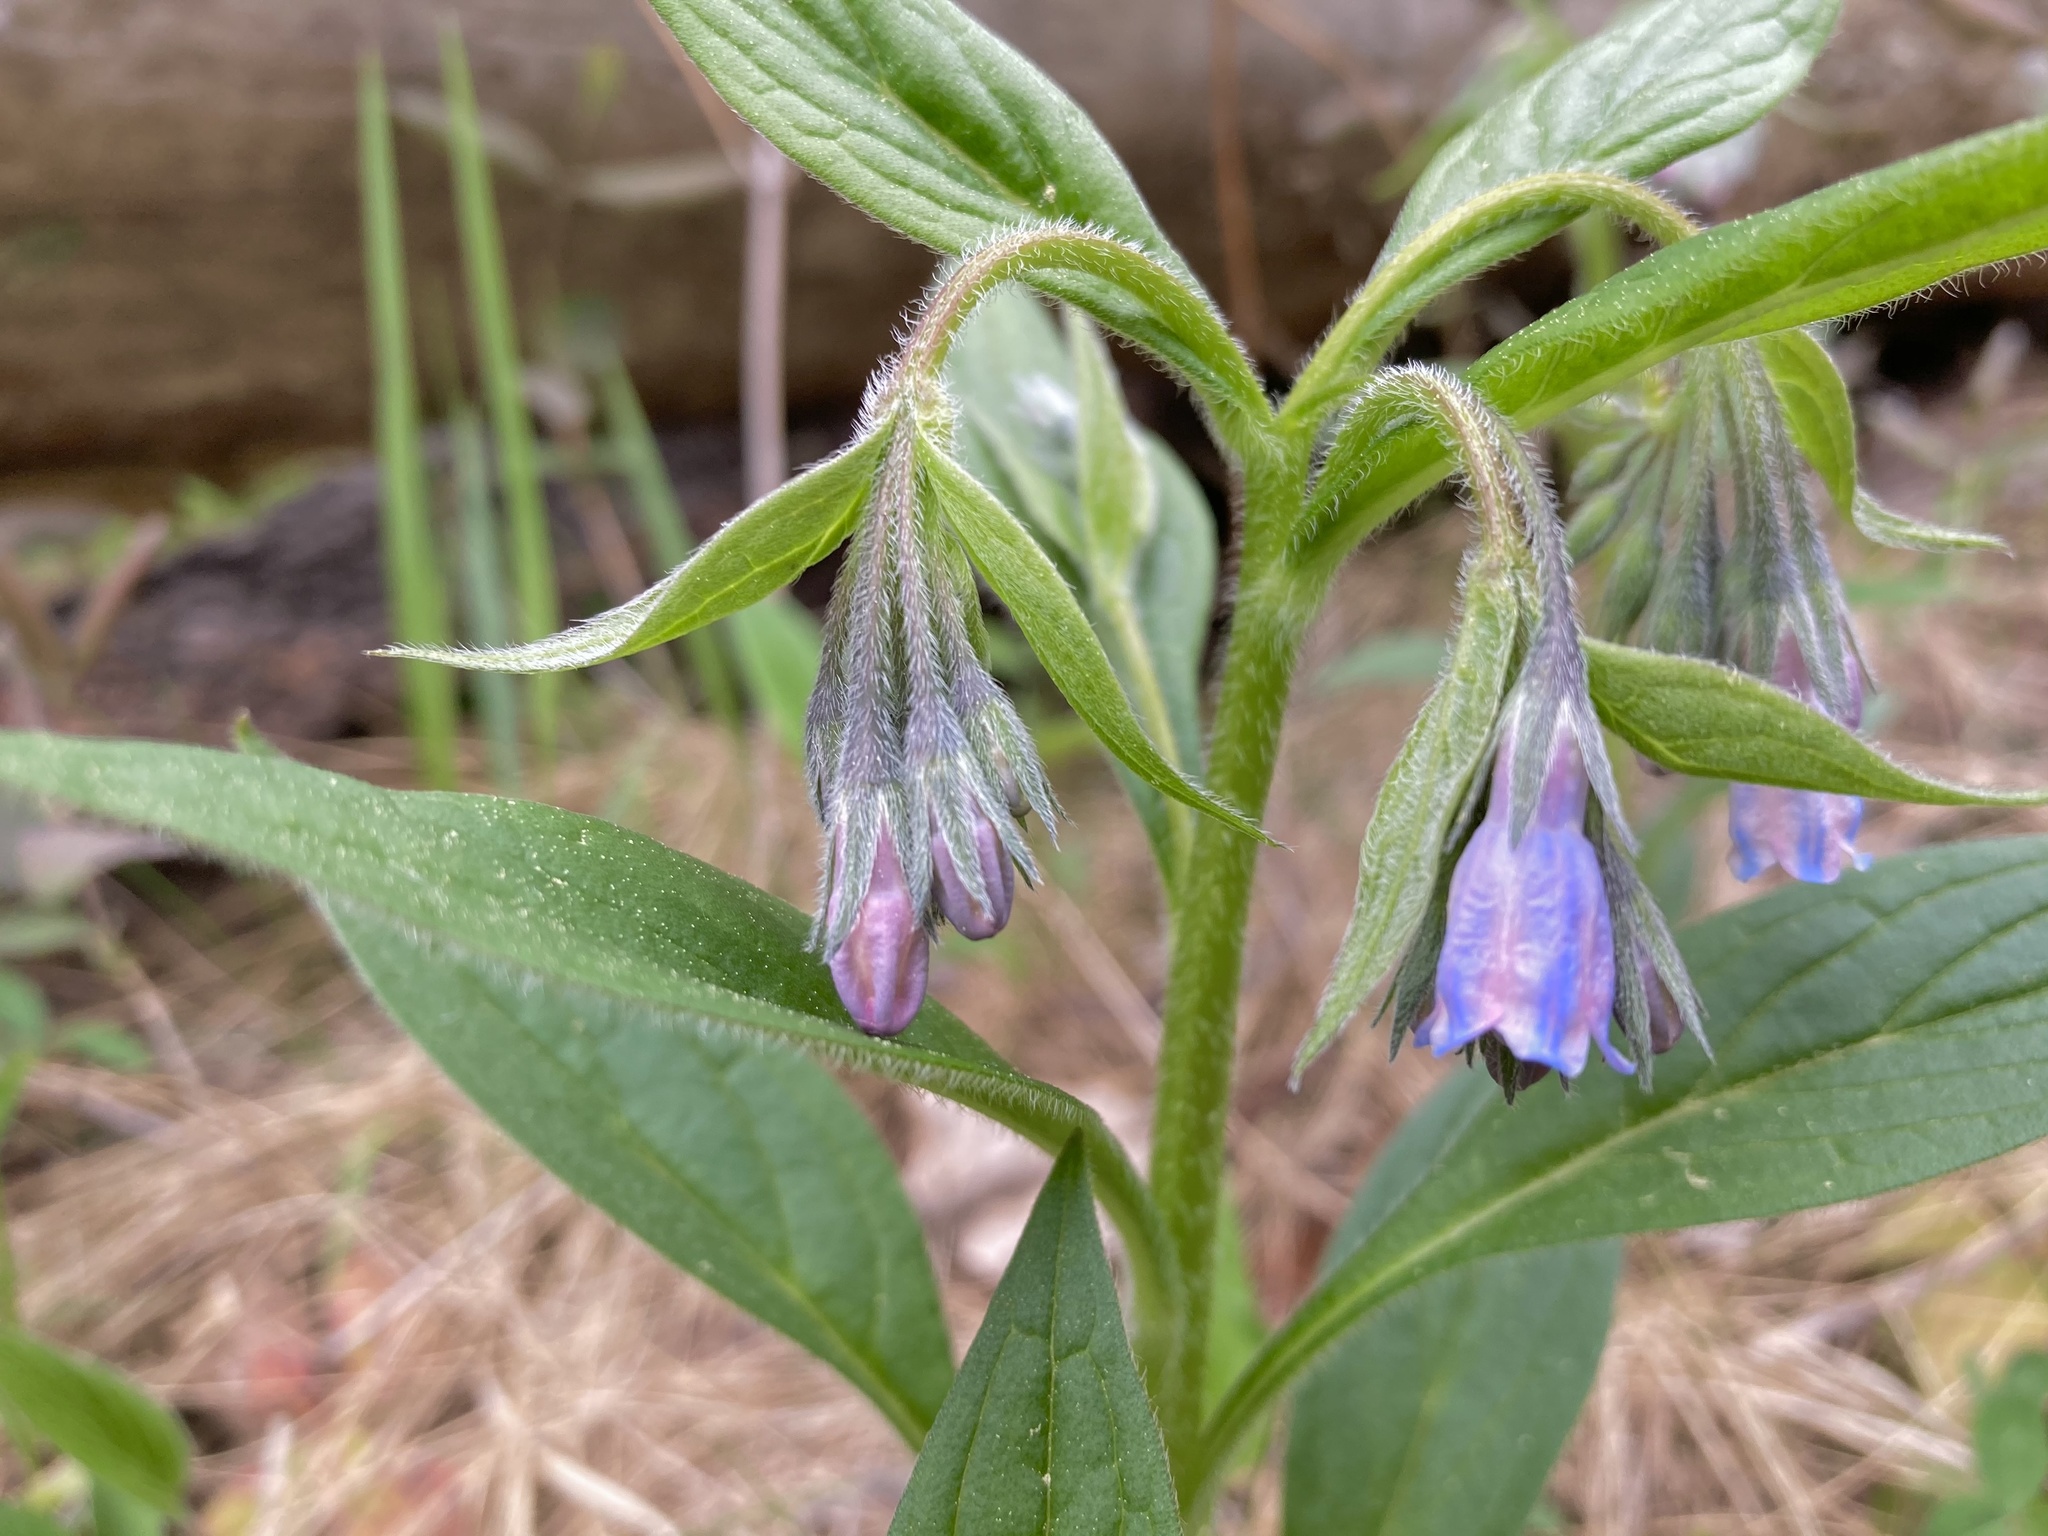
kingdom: Plantae
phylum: Tracheophyta
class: Magnoliopsida
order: Boraginales
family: Boraginaceae
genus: Mertensia
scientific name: Mertensia paniculata
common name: Panicled bluebells
